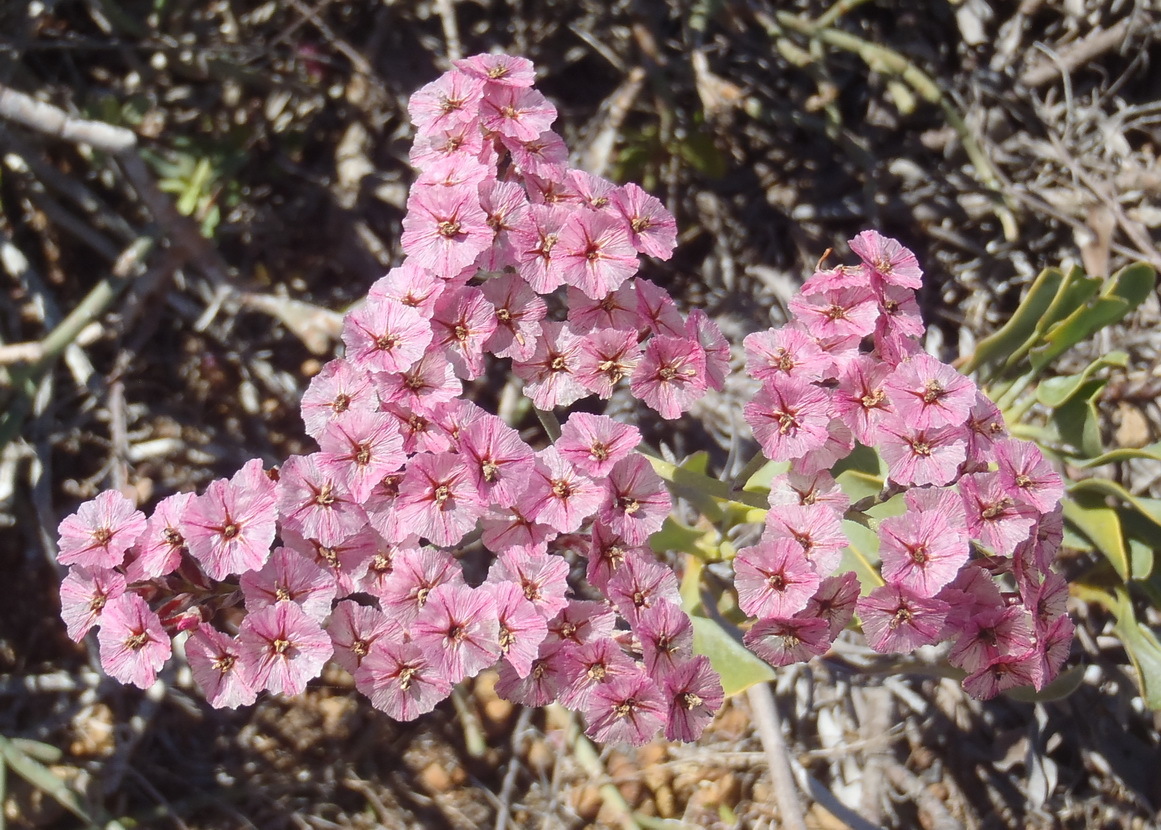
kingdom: Plantae
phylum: Tracheophyta
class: Magnoliopsida
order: Caryophyllales
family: Plumbaginaceae
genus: Limonium
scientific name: Limonium purpuratum
